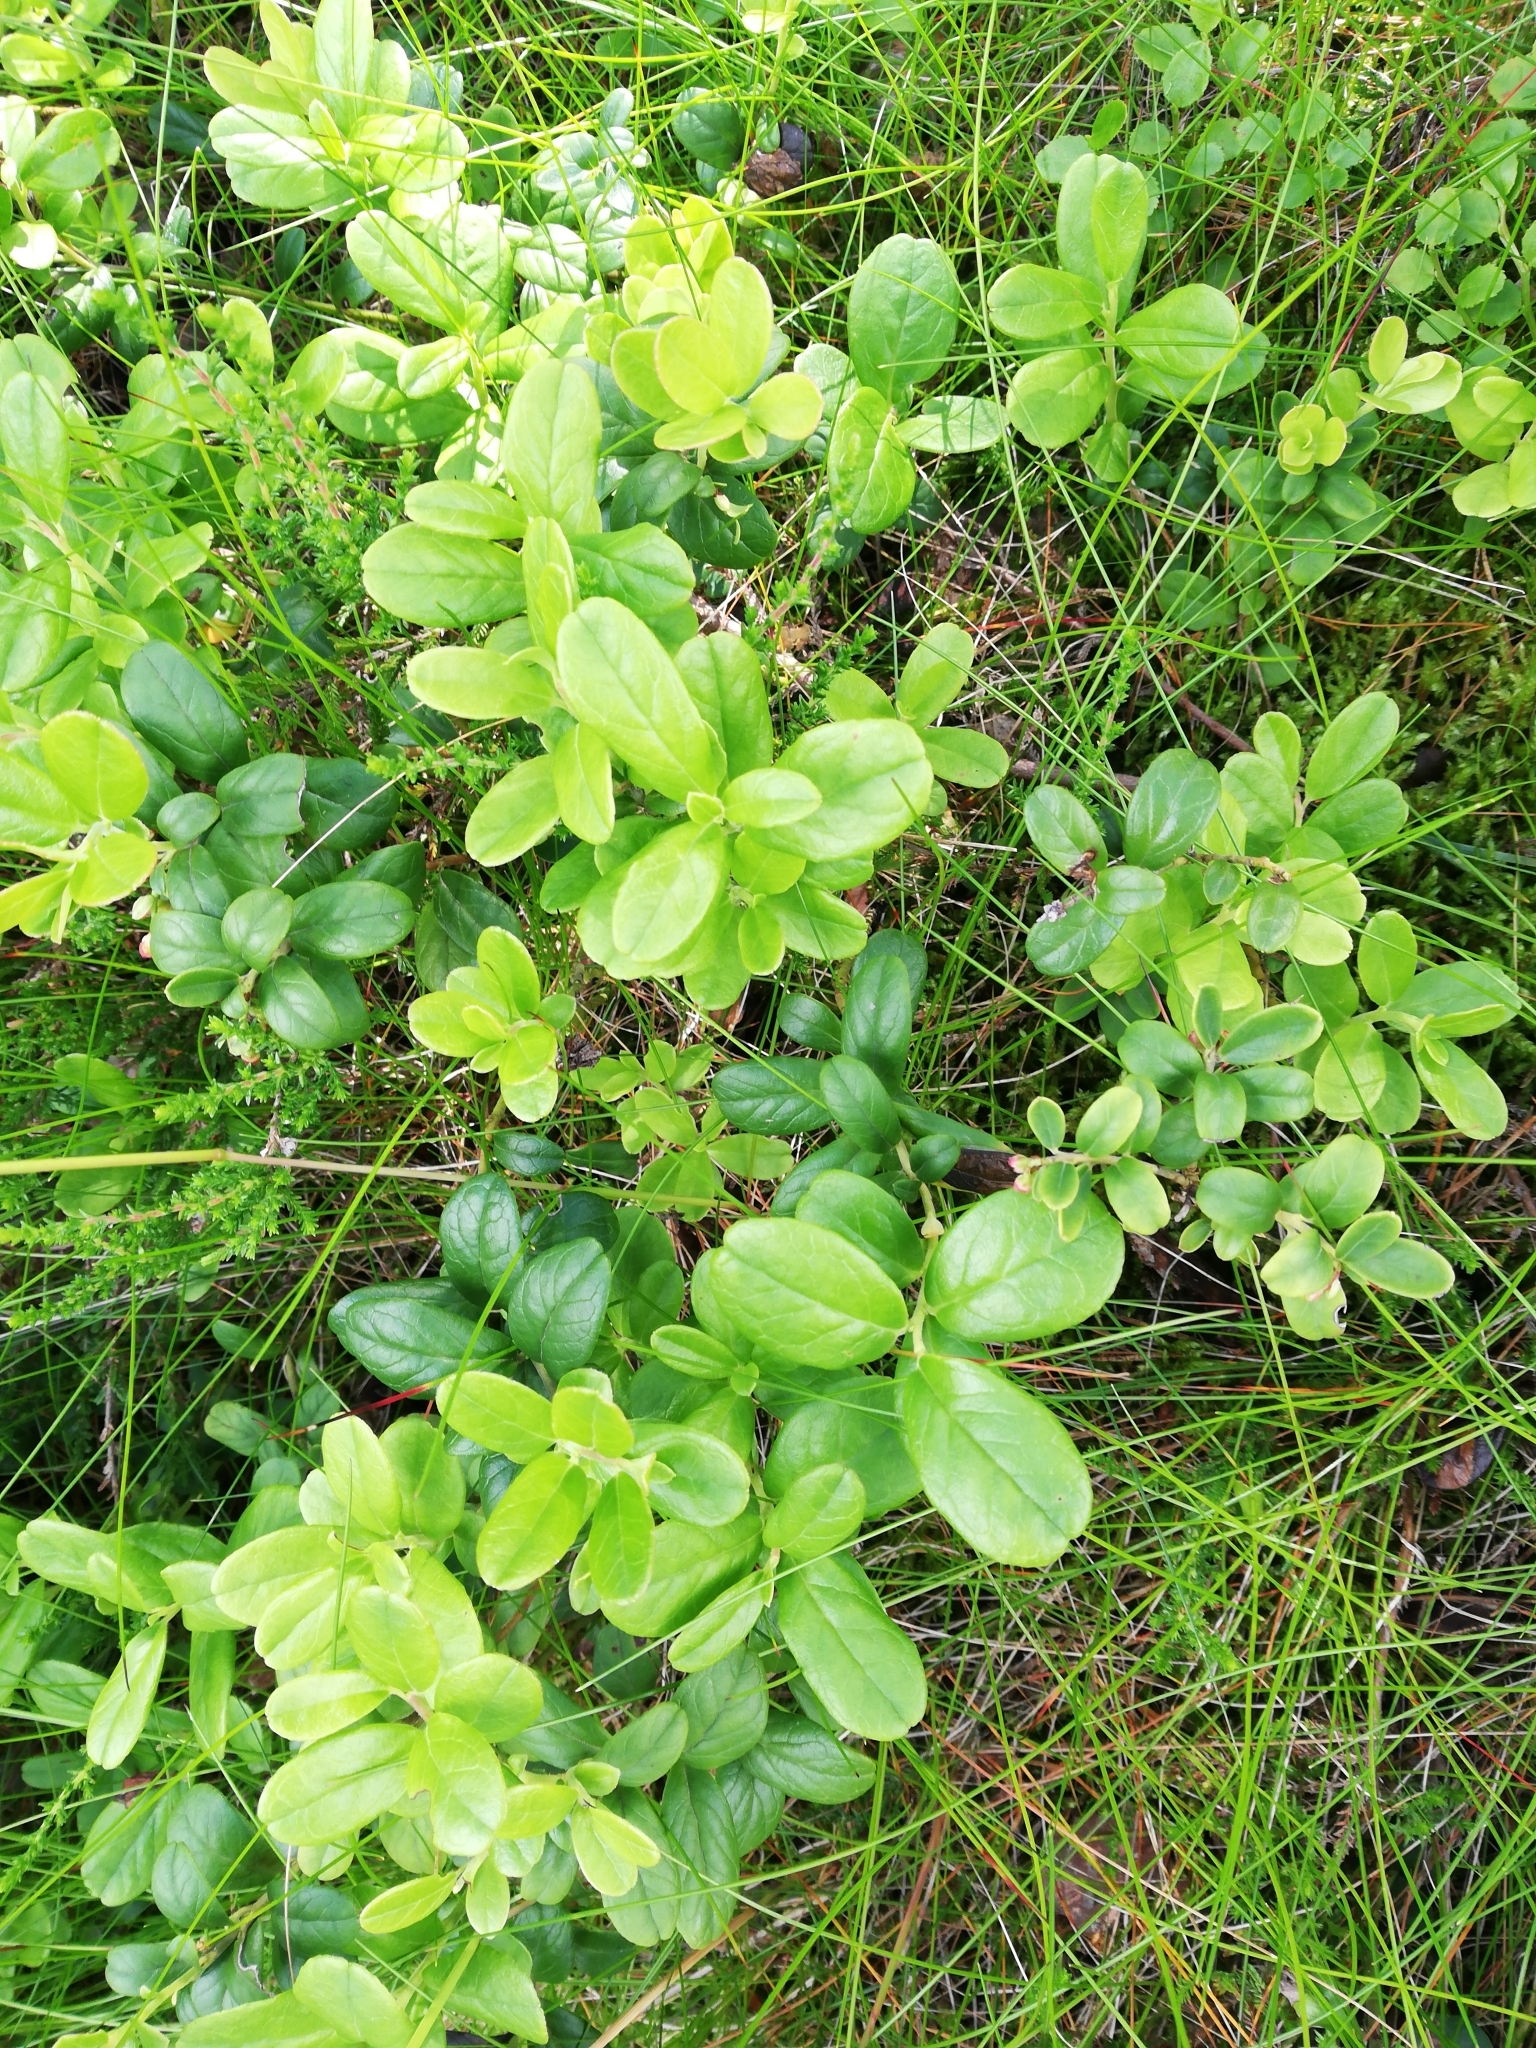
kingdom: Plantae
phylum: Tracheophyta
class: Magnoliopsida
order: Ericales
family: Ericaceae
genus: Vaccinium
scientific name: Vaccinium vitis-idaea
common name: Cowberry
